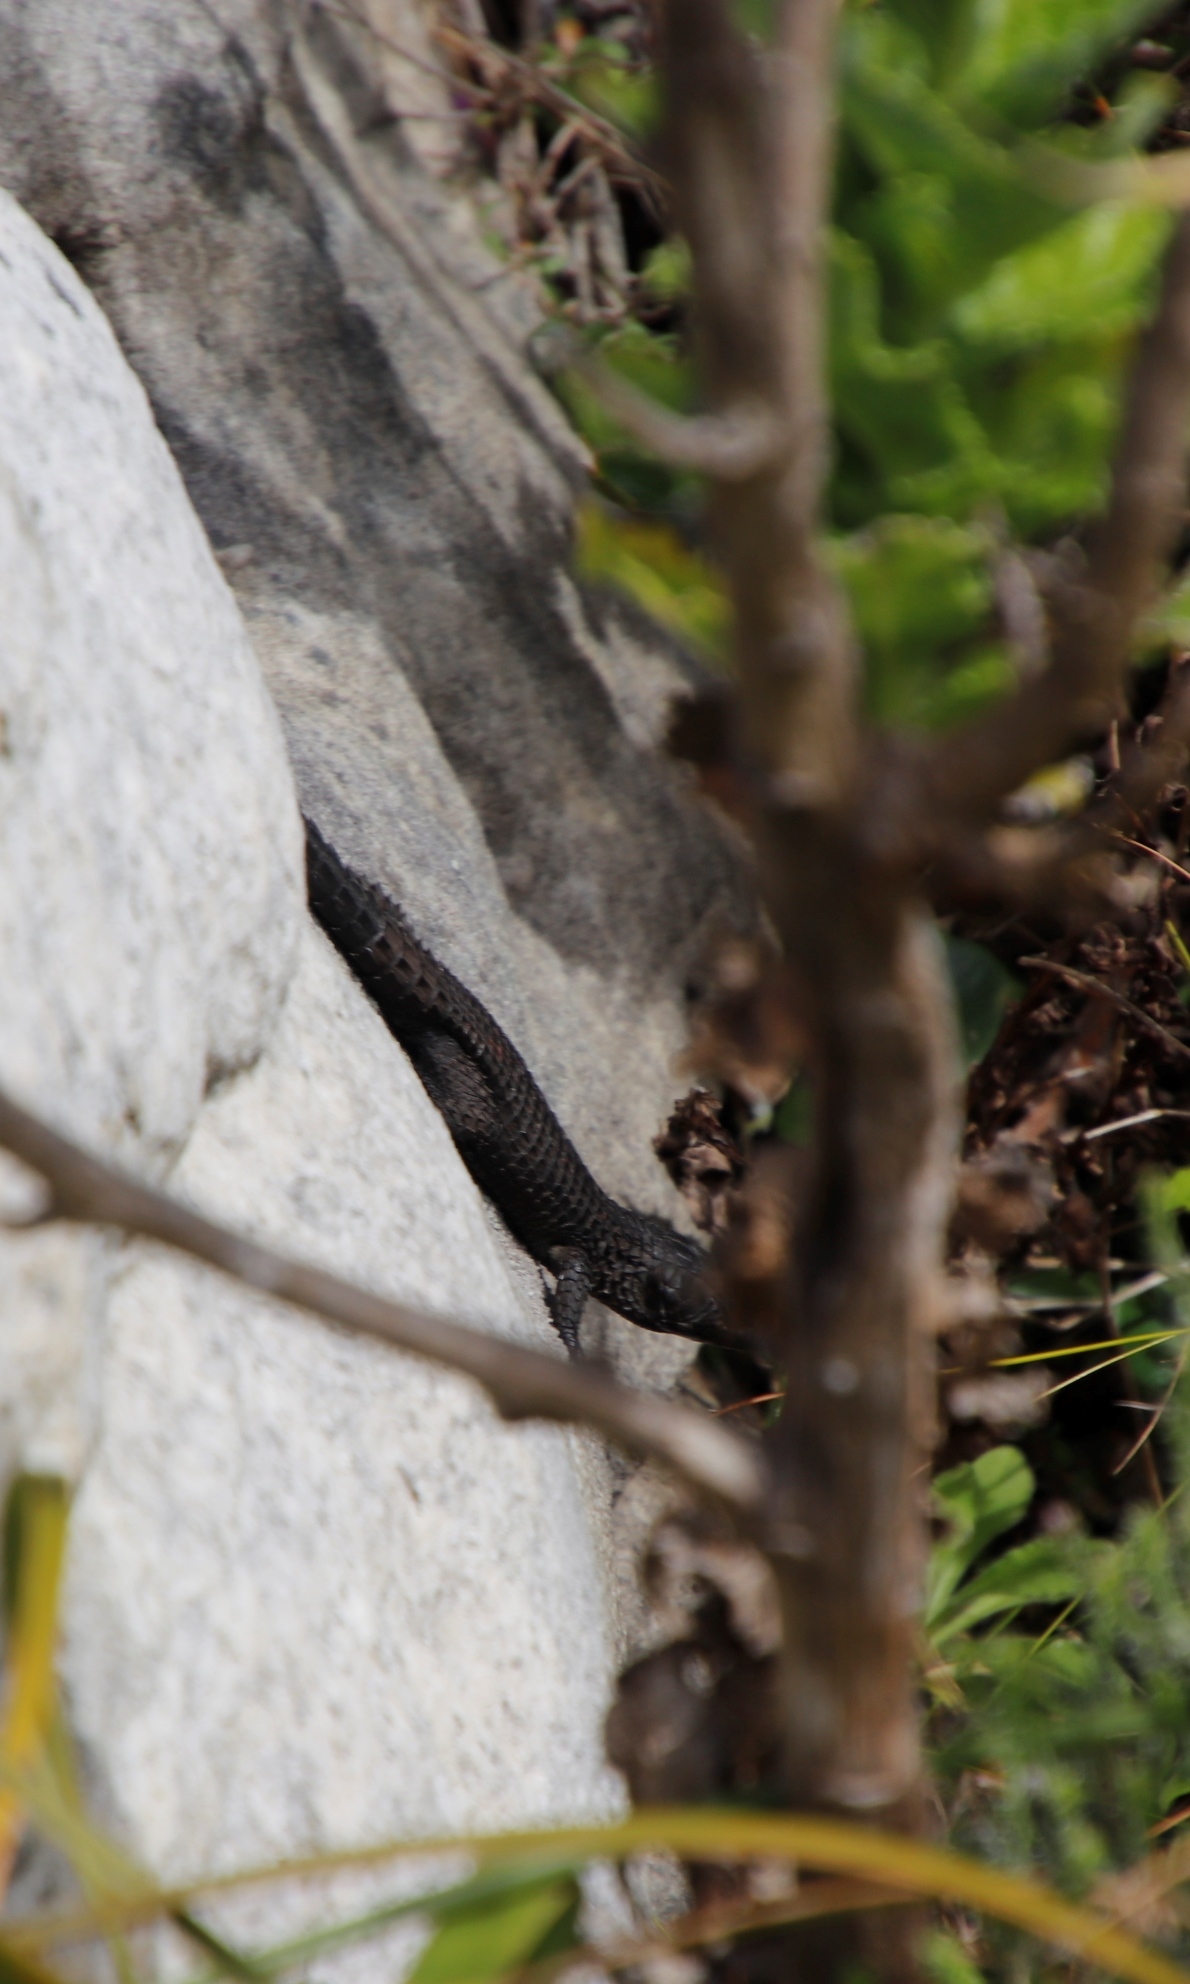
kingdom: Animalia
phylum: Chordata
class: Squamata
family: Cordylidae
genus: Cordylus
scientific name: Cordylus niger
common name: Black girdled lizard
